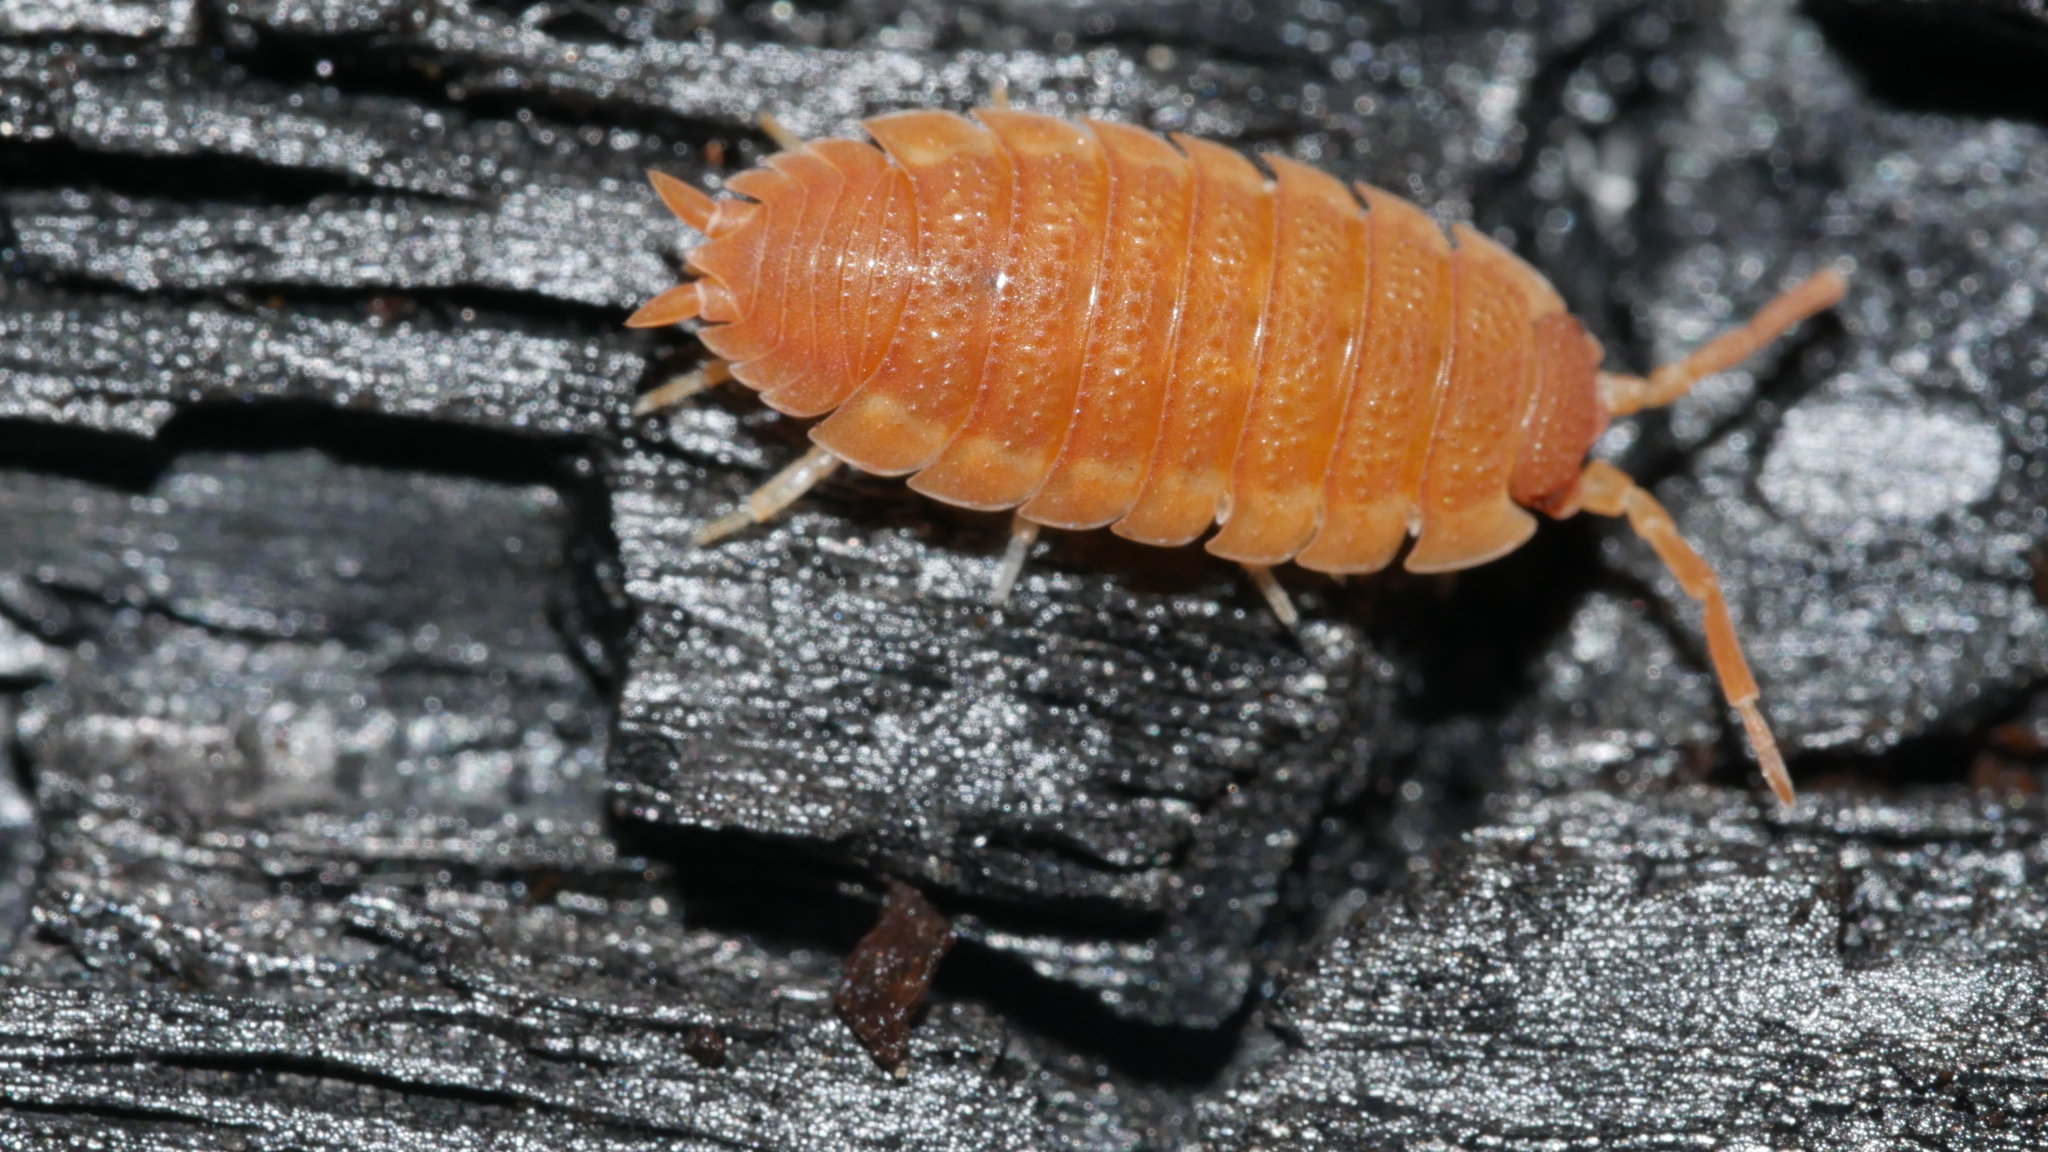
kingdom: Animalia
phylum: Arthropoda
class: Malacostraca
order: Isopoda
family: Porcellionidae
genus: Porcellio
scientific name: Porcellio scaber
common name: Common rough woodlouse
